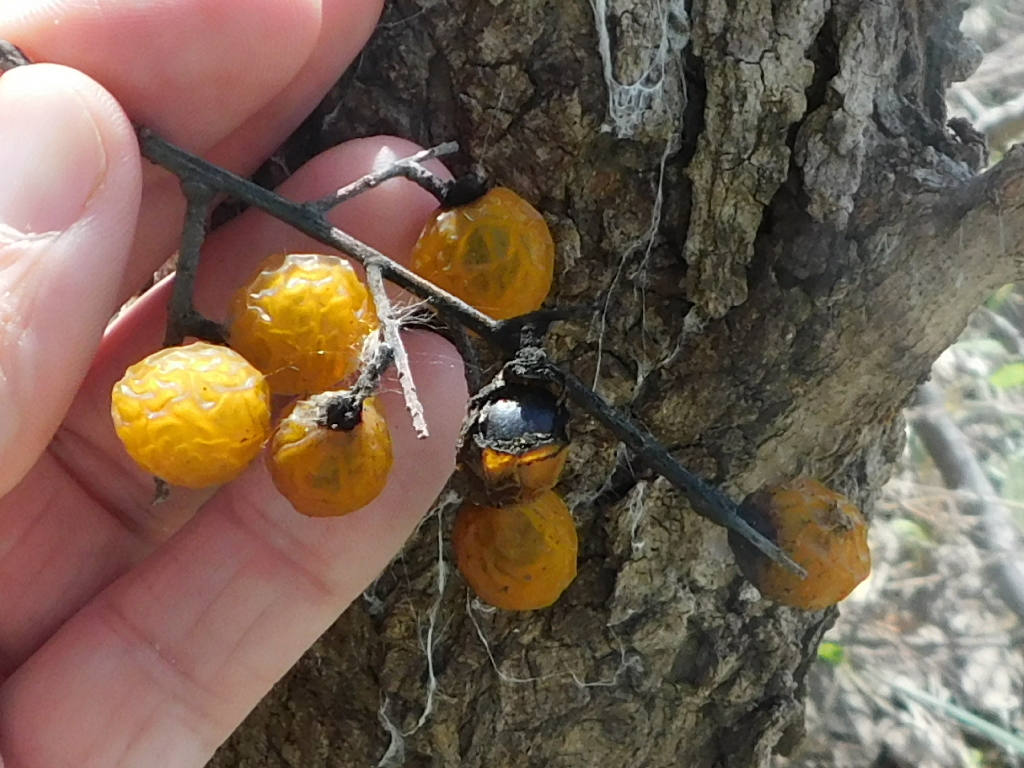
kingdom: Plantae
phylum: Tracheophyta
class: Magnoliopsida
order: Sapindales
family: Sapindaceae
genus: Sapindus
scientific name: Sapindus drummondii
